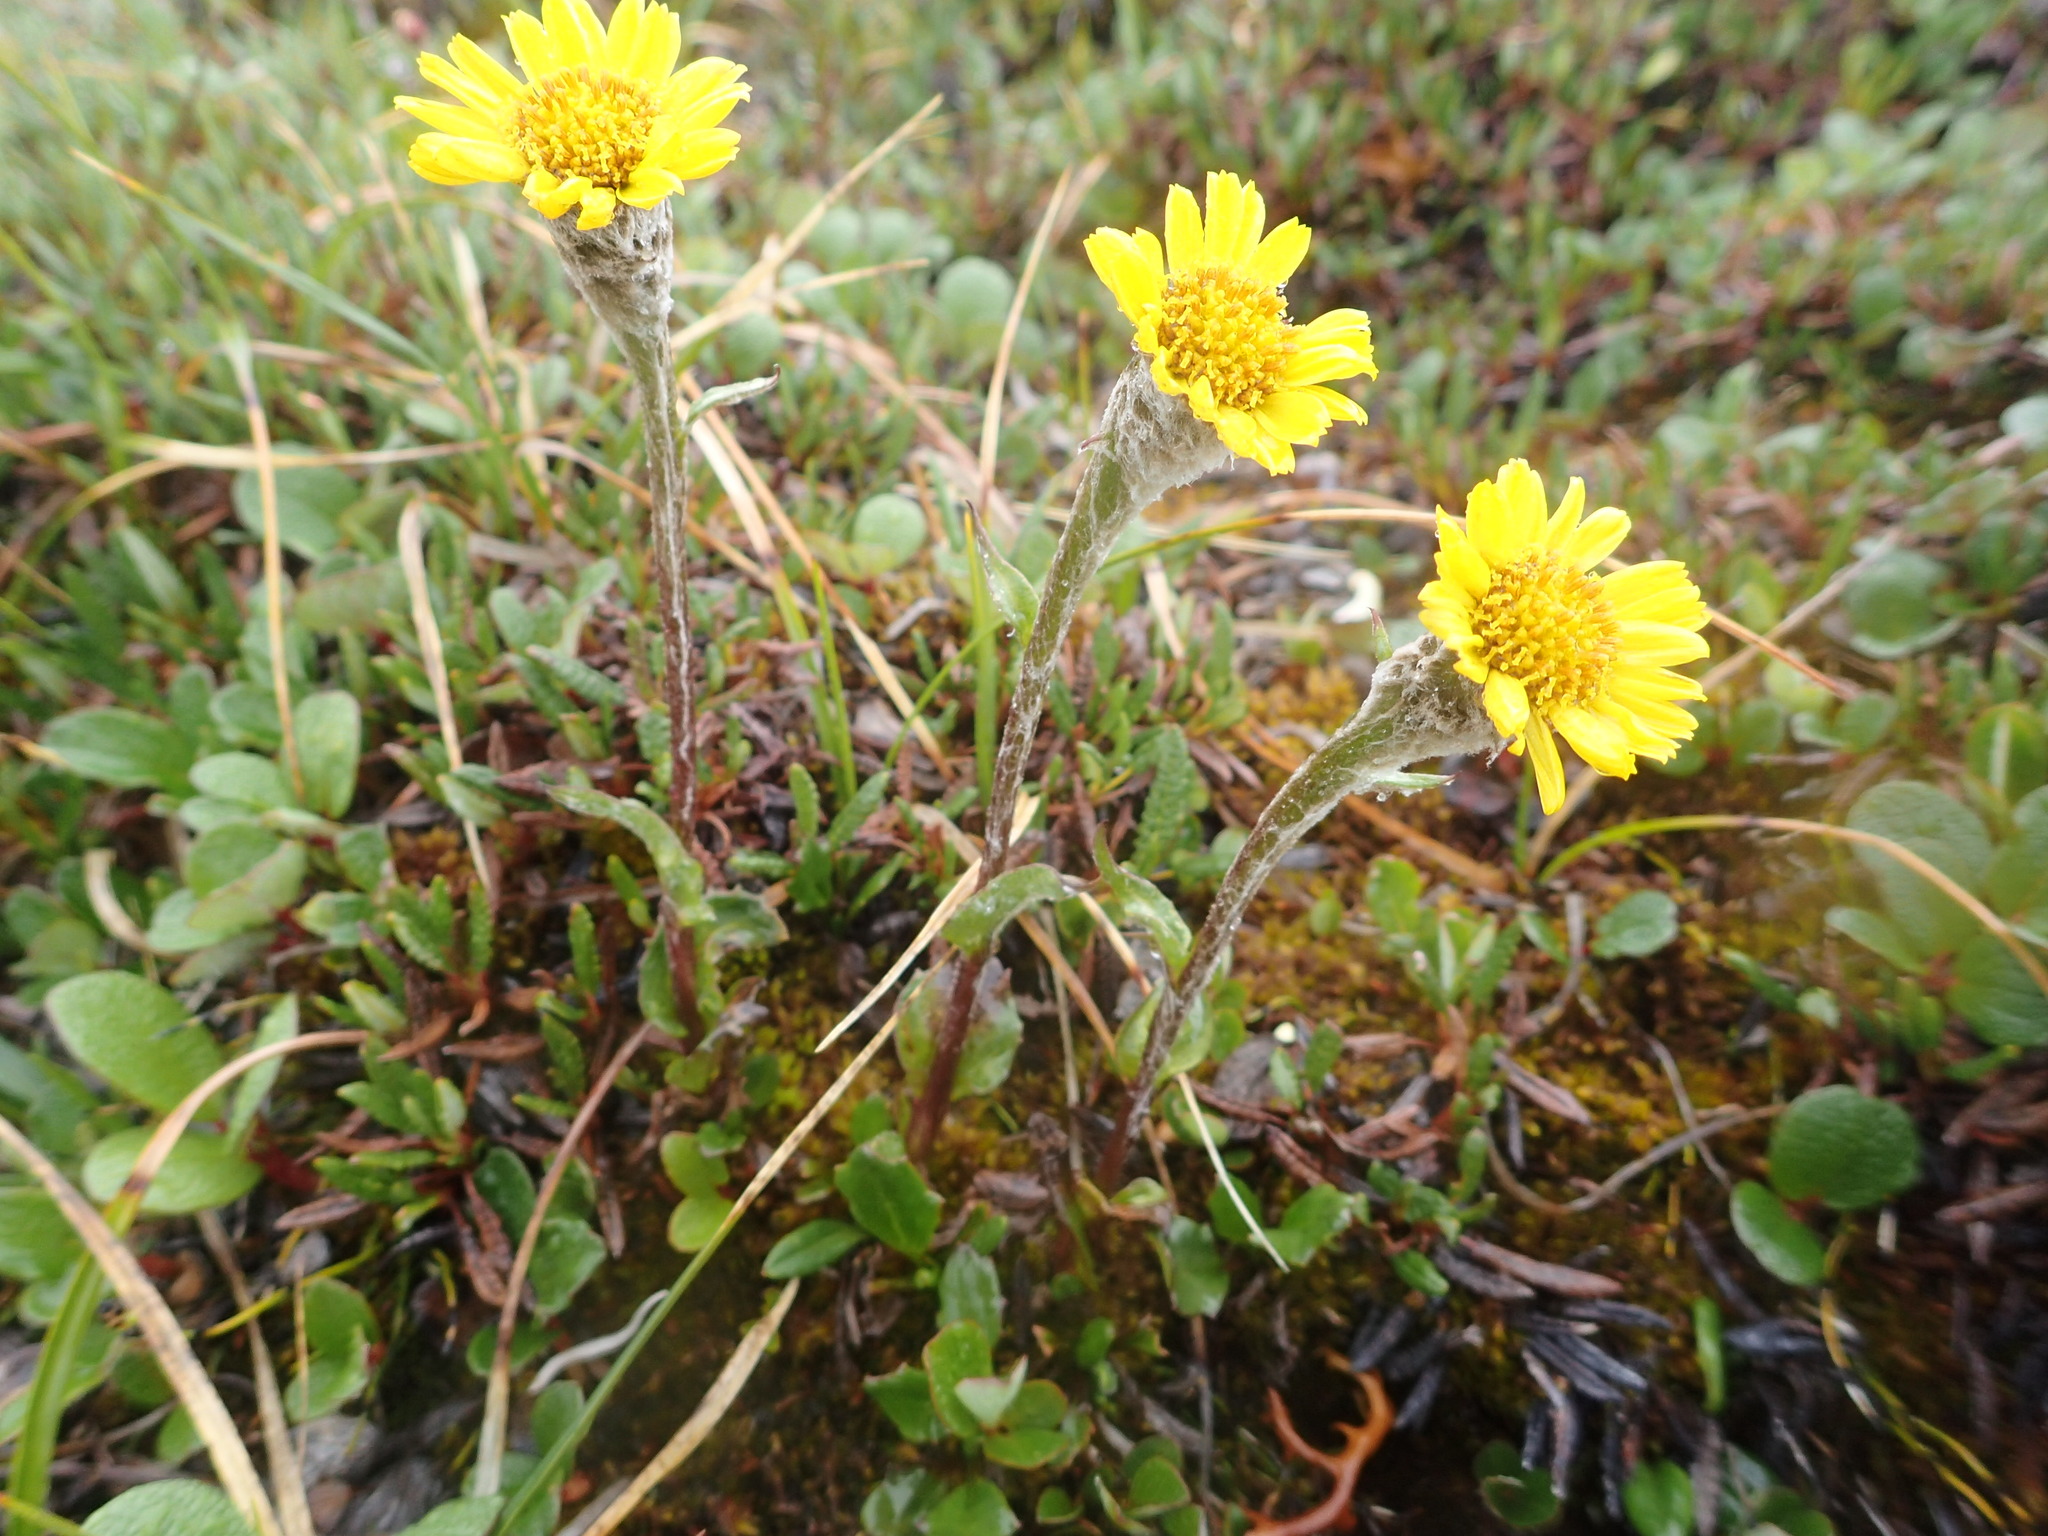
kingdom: Plantae
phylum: Tracheophyta
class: Magnoliopsida
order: Asterales
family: Asteraceae
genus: Tephroseris
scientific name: Tephroseris frigida
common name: Arctic groundsel
